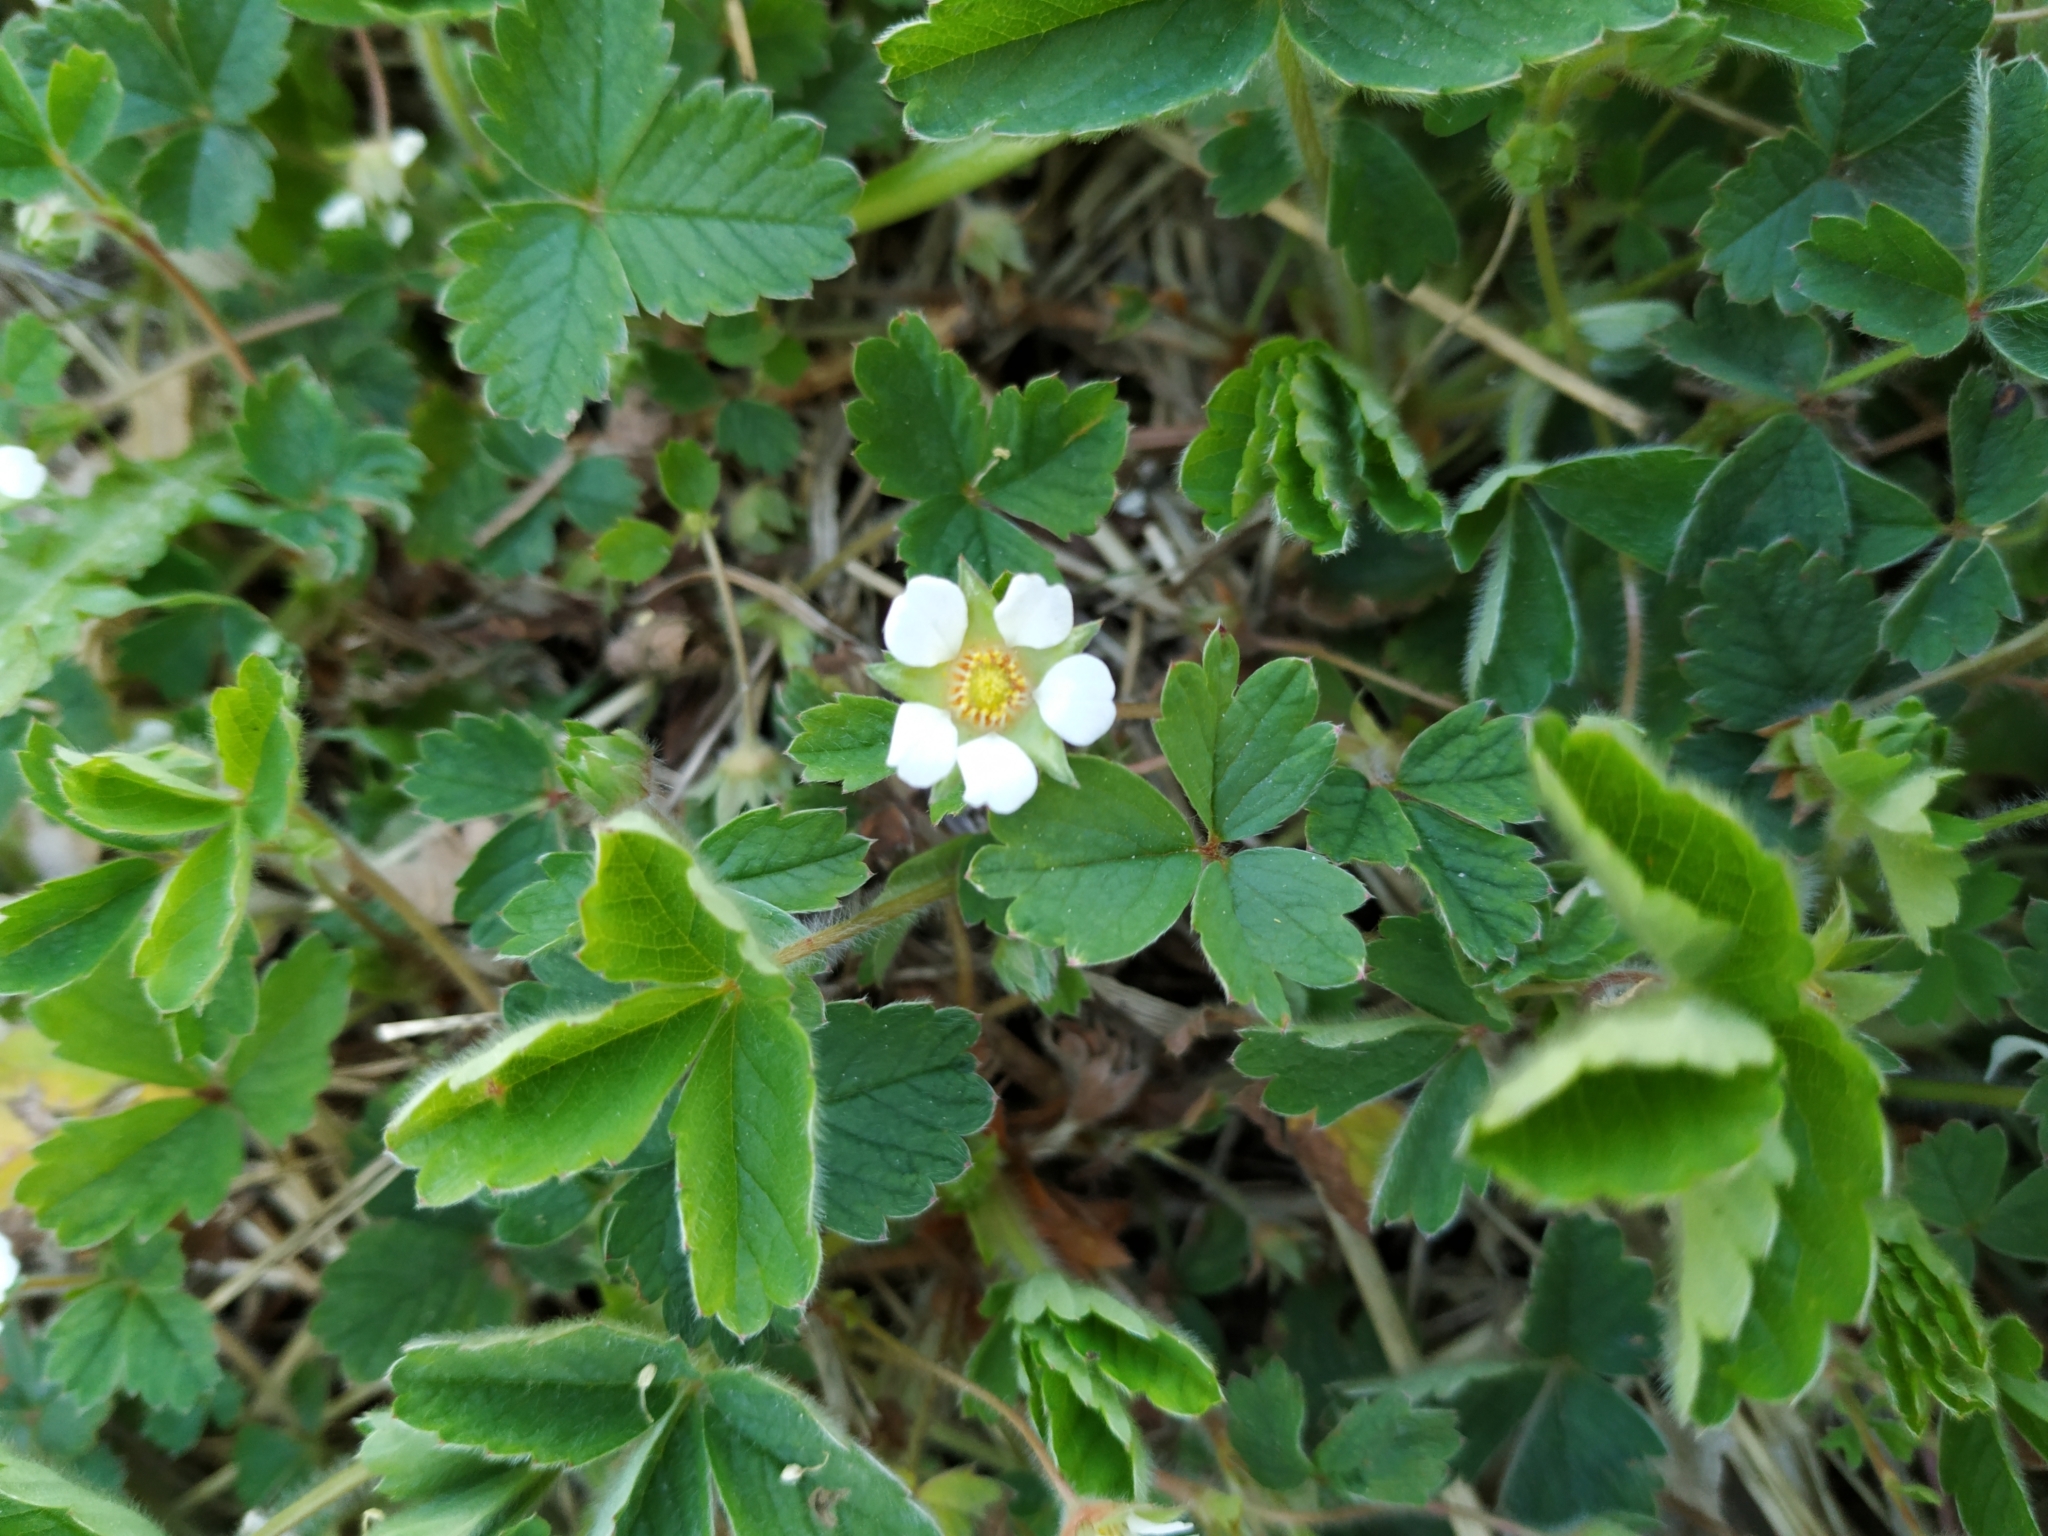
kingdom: Plantae
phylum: Tracheophyta
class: Magnoliopsida
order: Rosales
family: Rosaceae
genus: Potentilla
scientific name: Potentilla sterilis
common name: Barren strawberry
